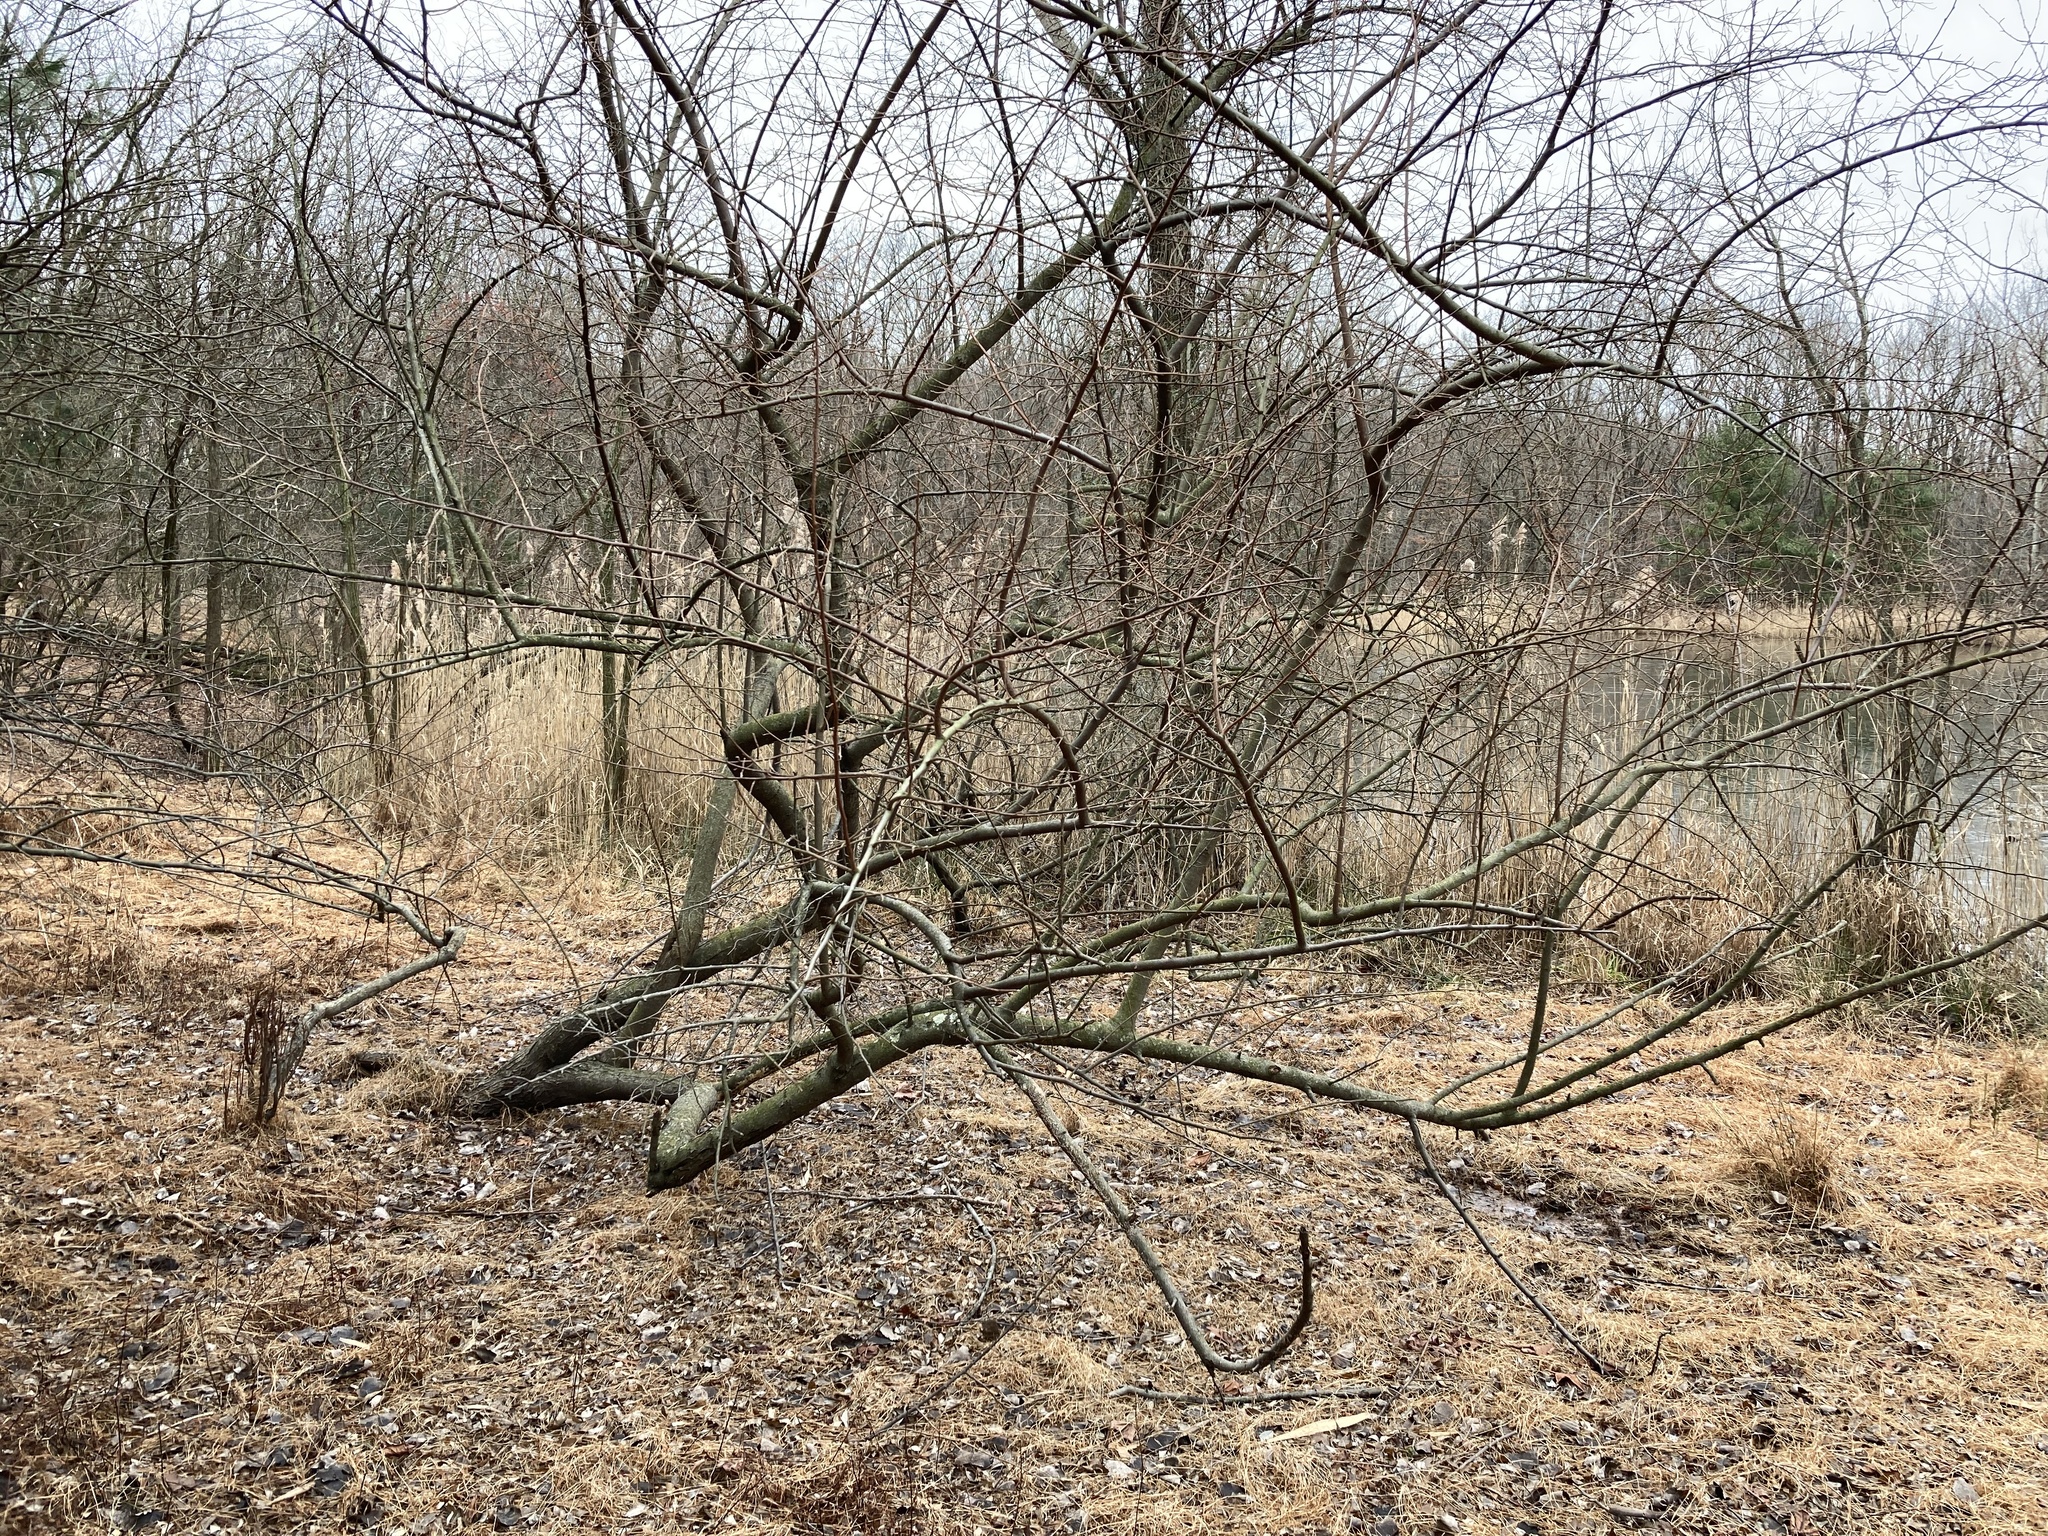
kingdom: Plantae
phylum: Tracheophyta
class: Magnoliopsida
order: Rosales
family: Elaeagnaceae
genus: Elaeagnus
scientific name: Elaeagnus umbellata
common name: Autumn olive
